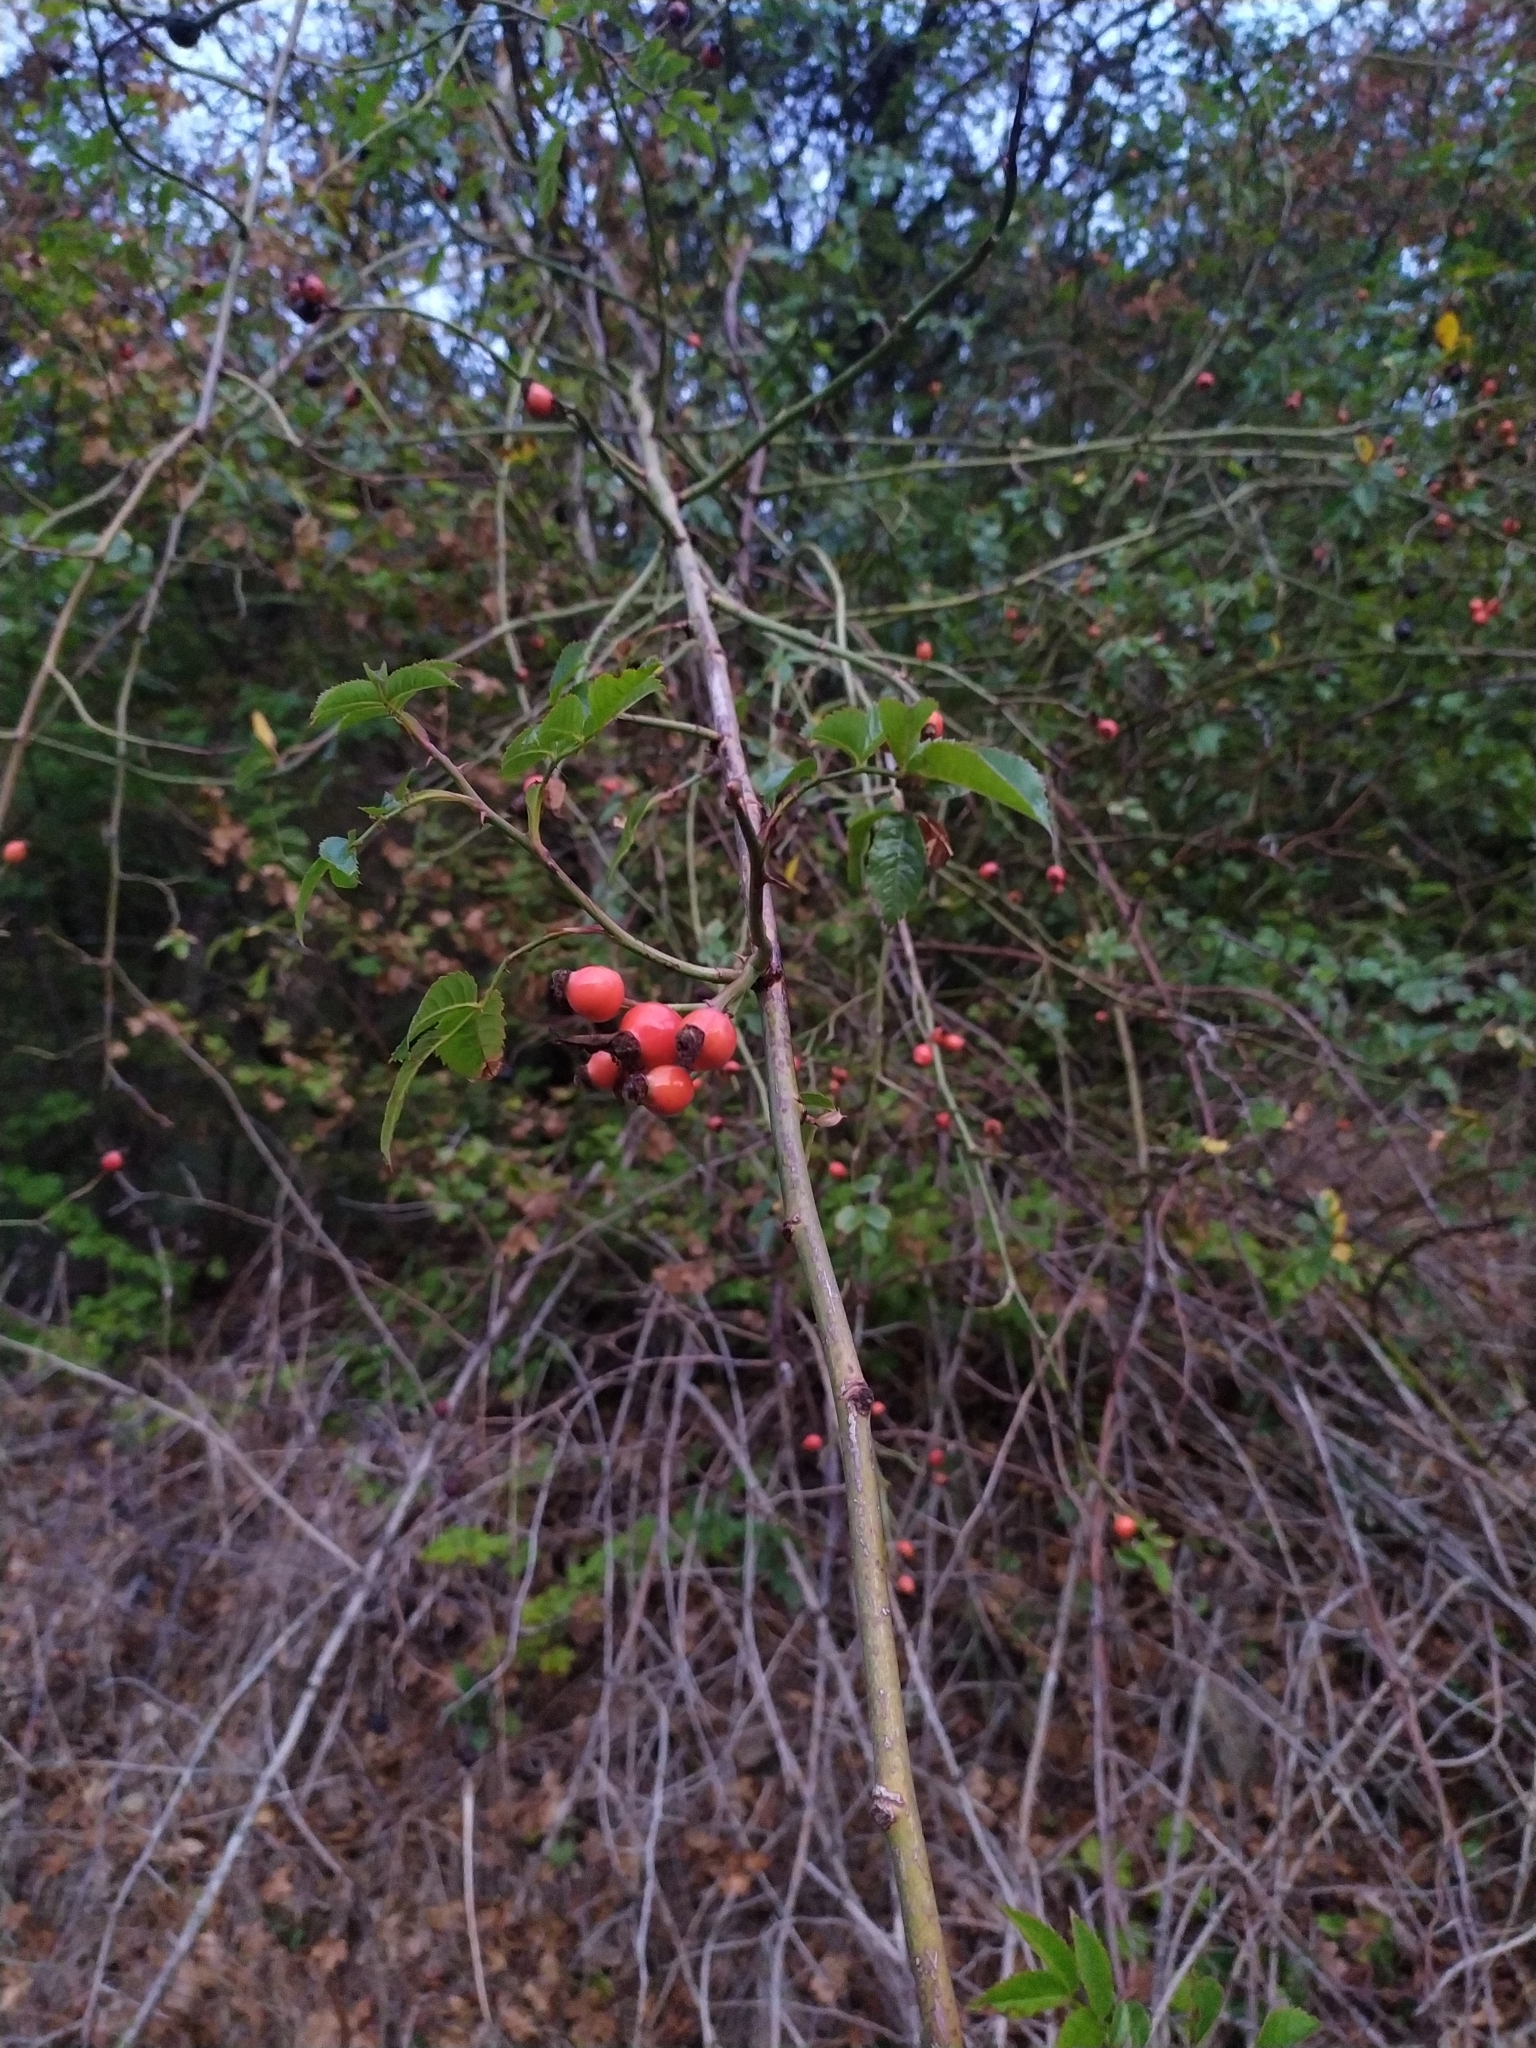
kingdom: Plantae
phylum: Tracheophyta
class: Magnoliopsida
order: Rosales
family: Rosaceae
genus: Rosa
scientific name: Rosa
